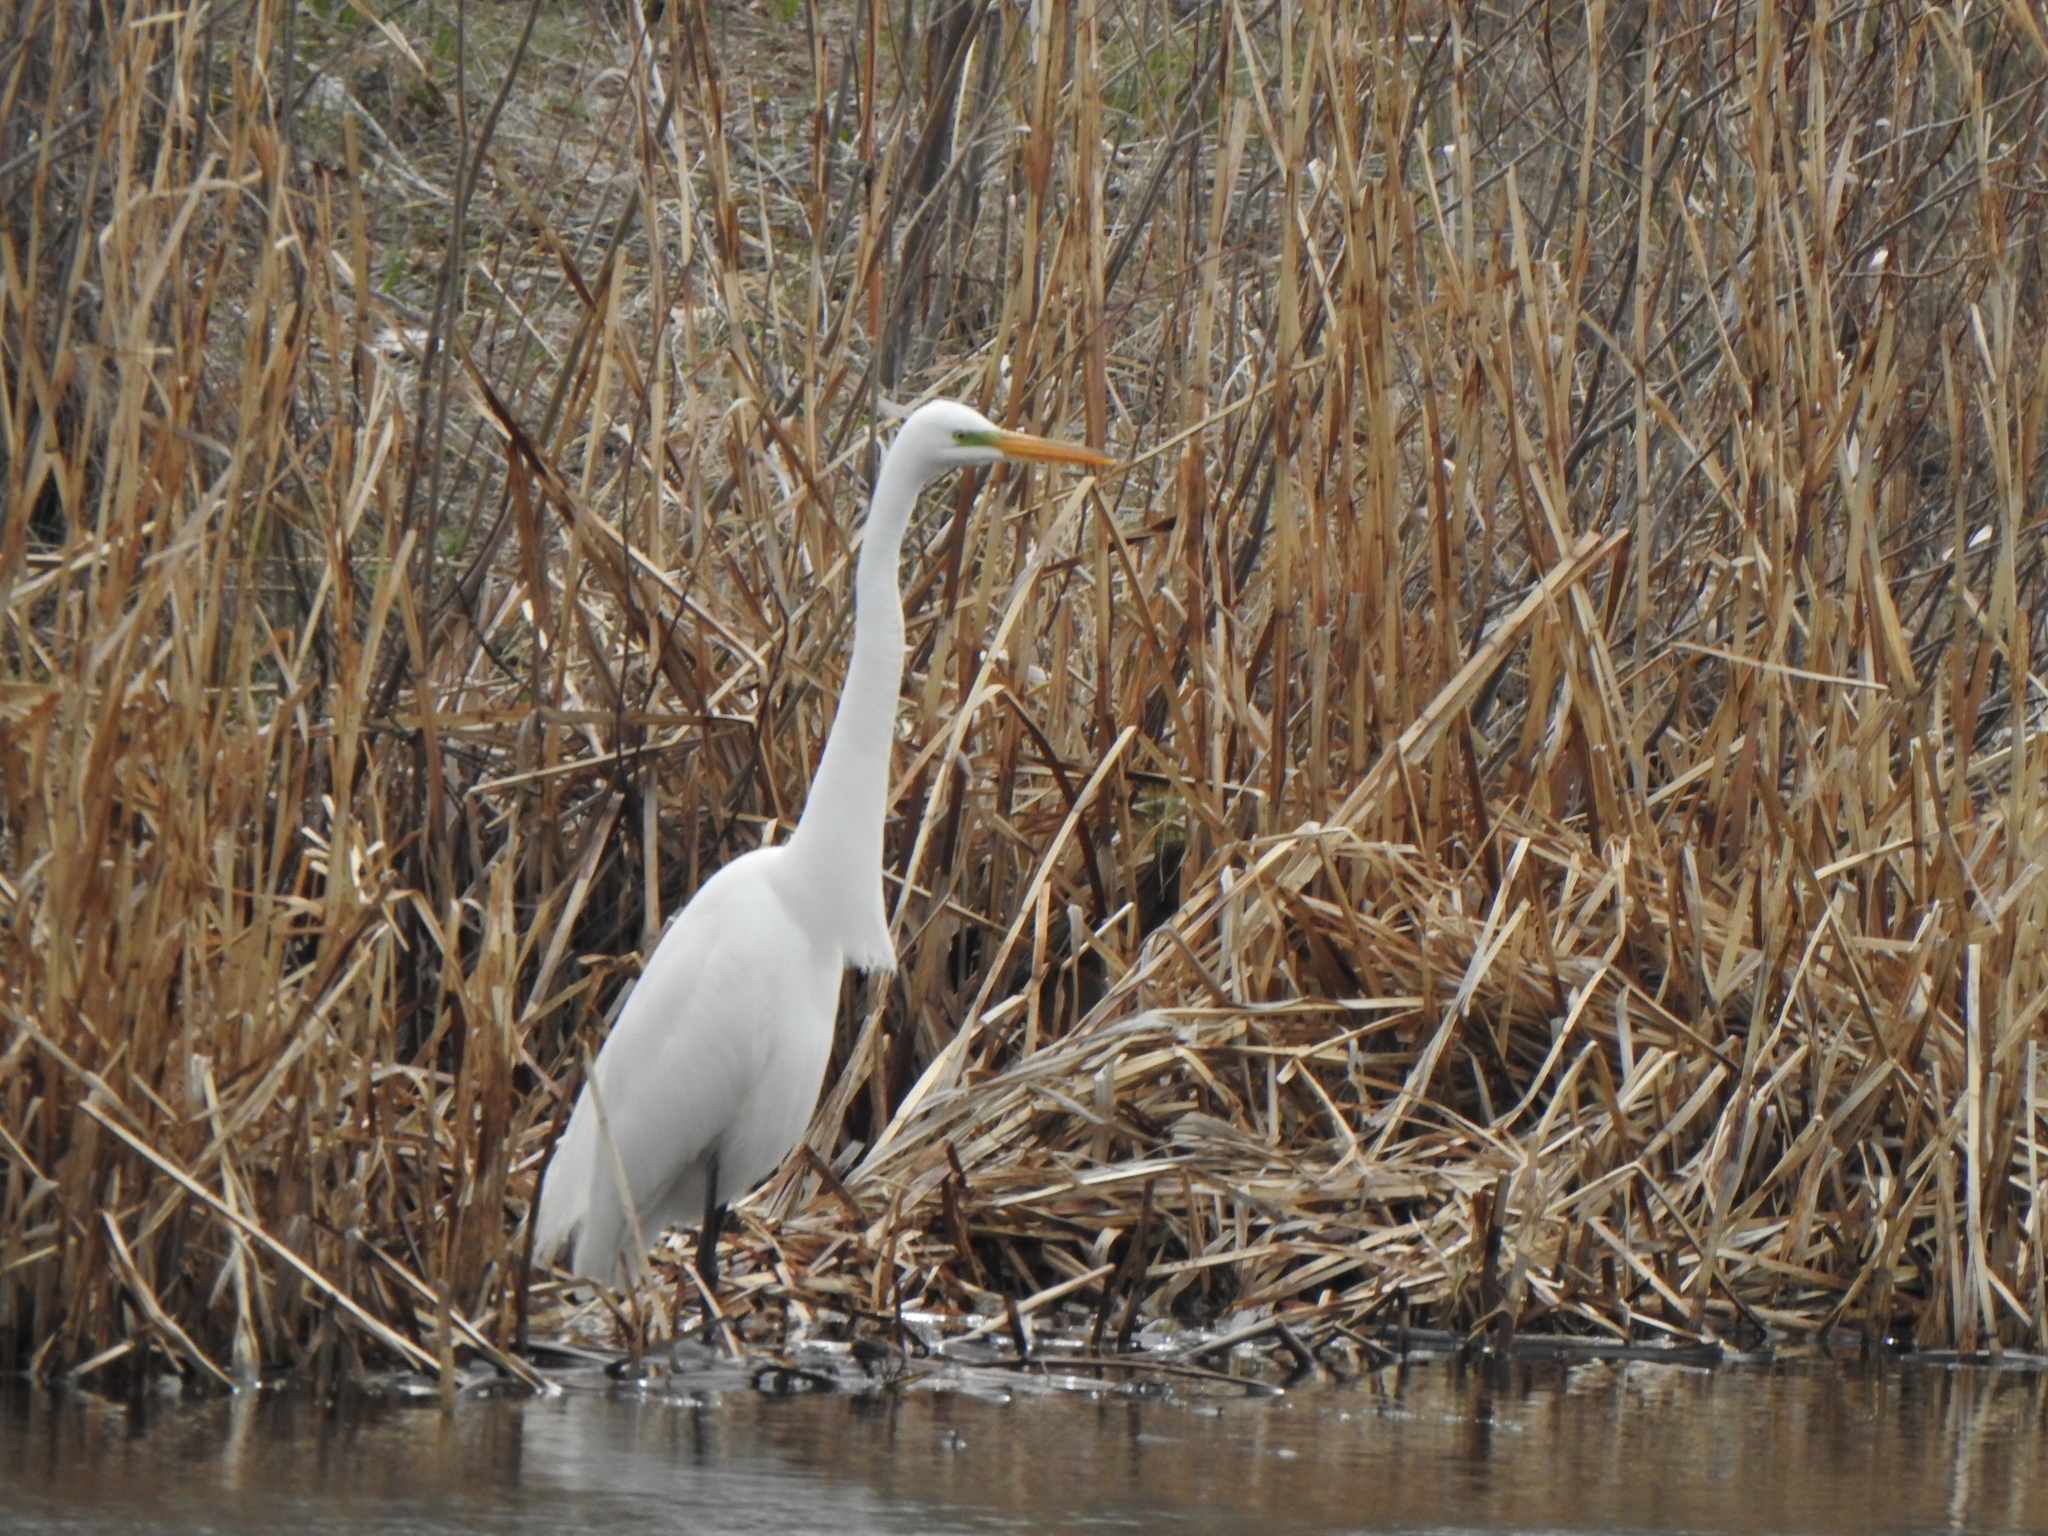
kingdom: Animalia
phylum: Chordata
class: Aves
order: Pelecaniformes
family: Ardeidae
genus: Ardea
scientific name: Ardea alba
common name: Great egret
